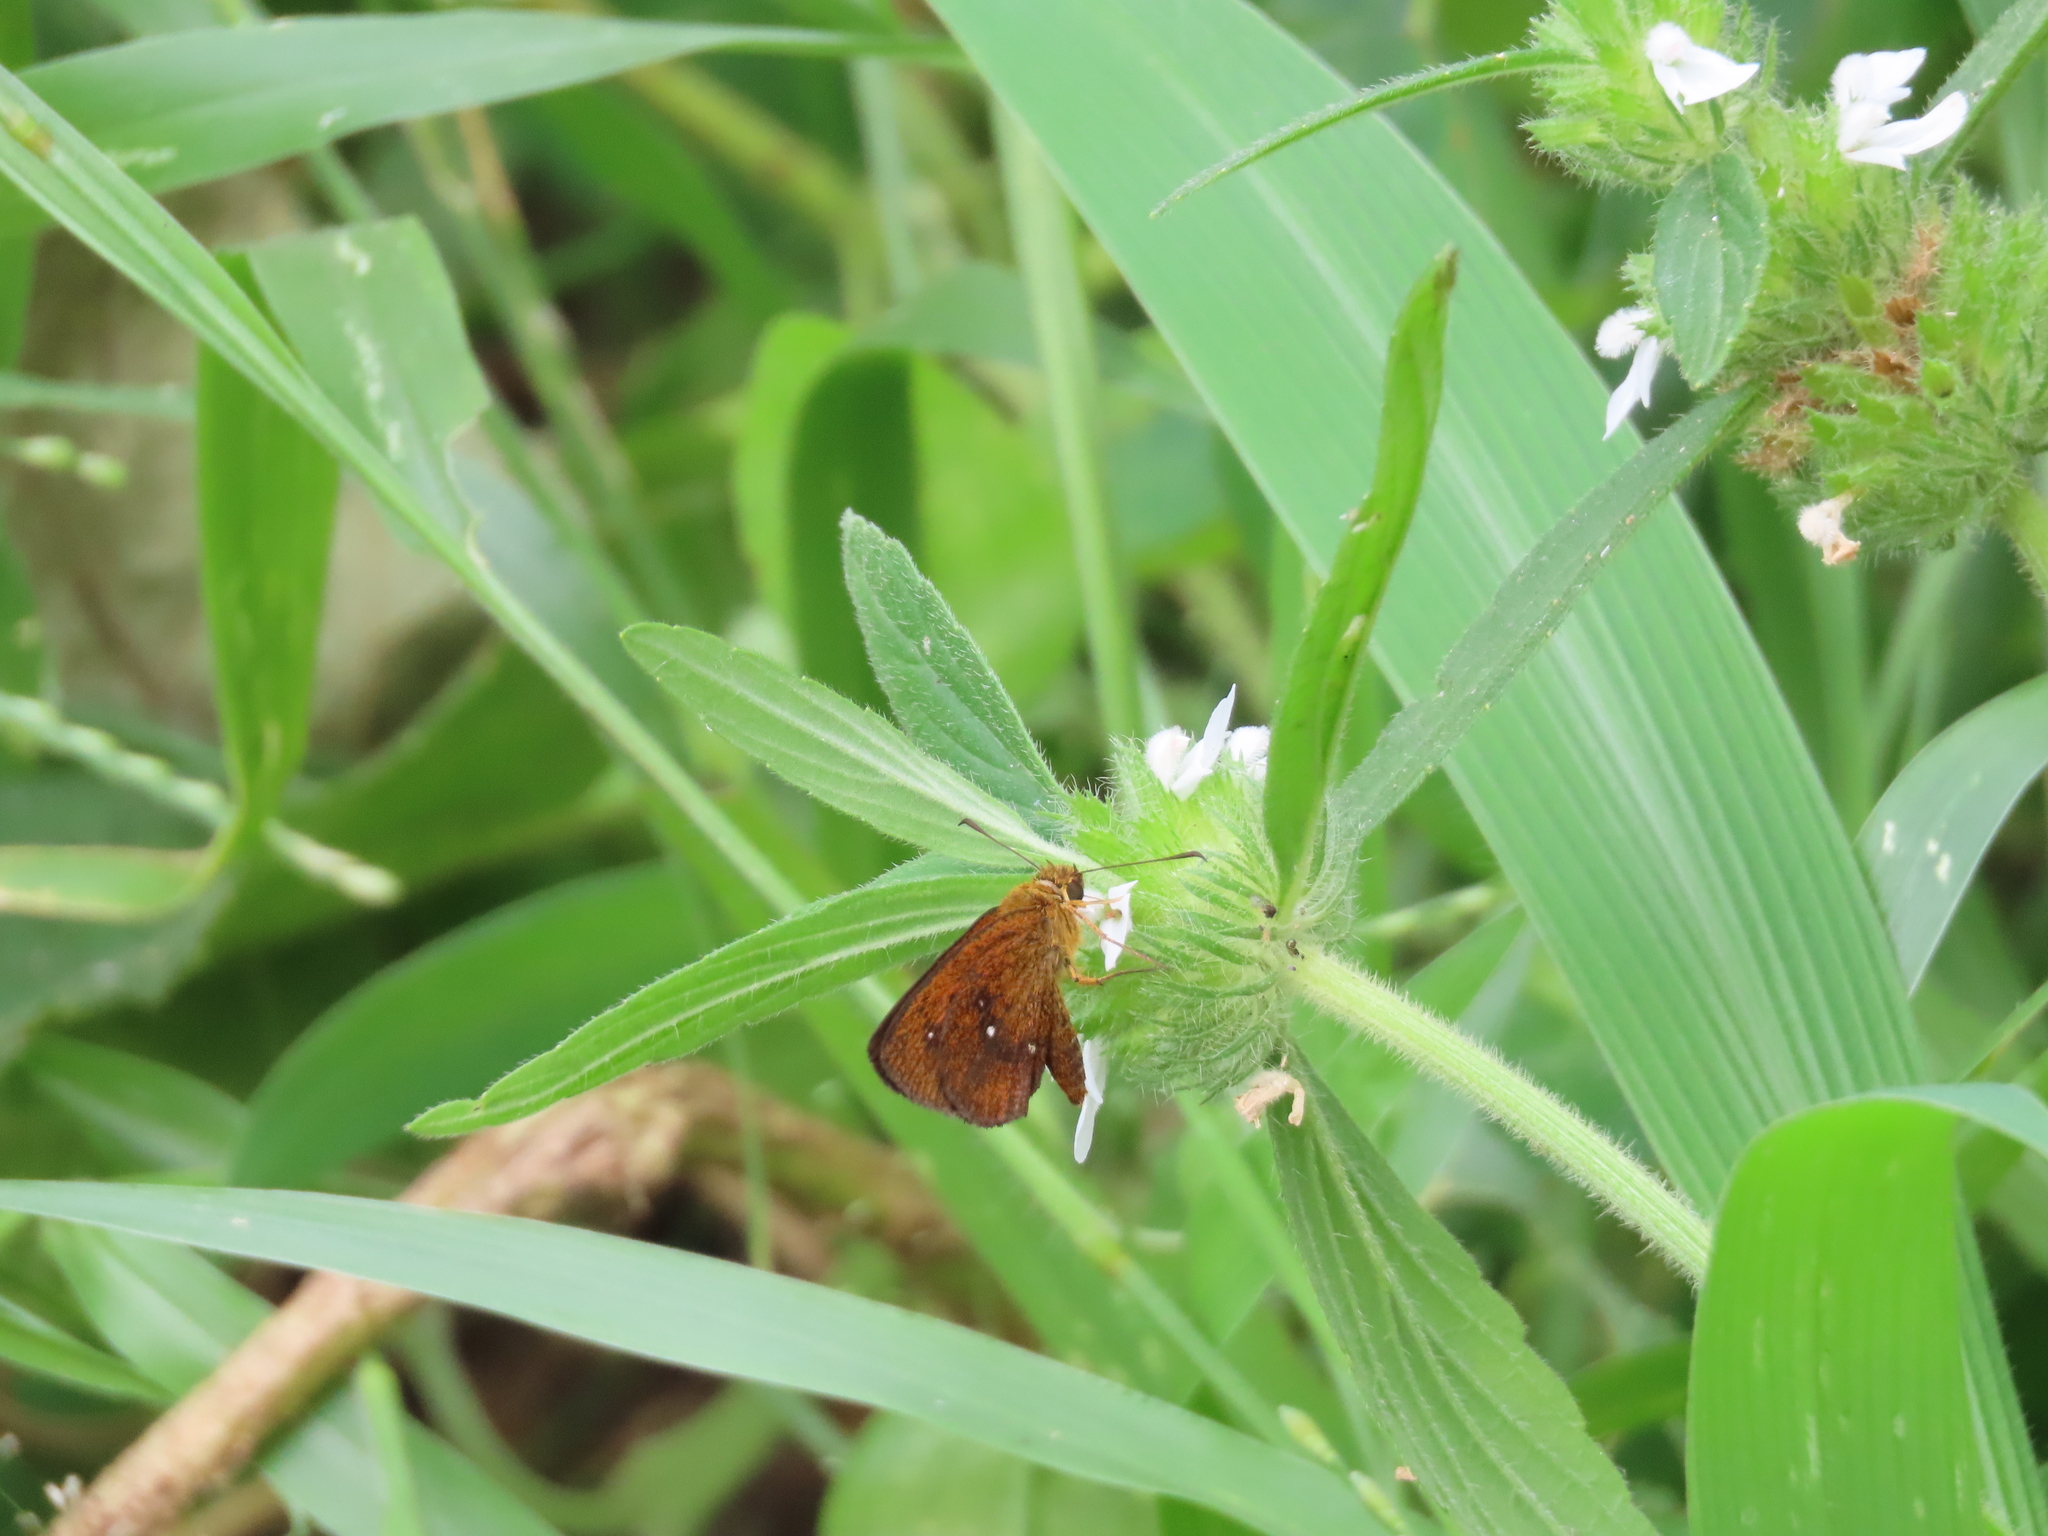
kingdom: Animalia
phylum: Arthropoda
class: Insecta
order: Lepidoptera
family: Hesperiidae
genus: Iambrix
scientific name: Iambrix salsala
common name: Chestnut bob
